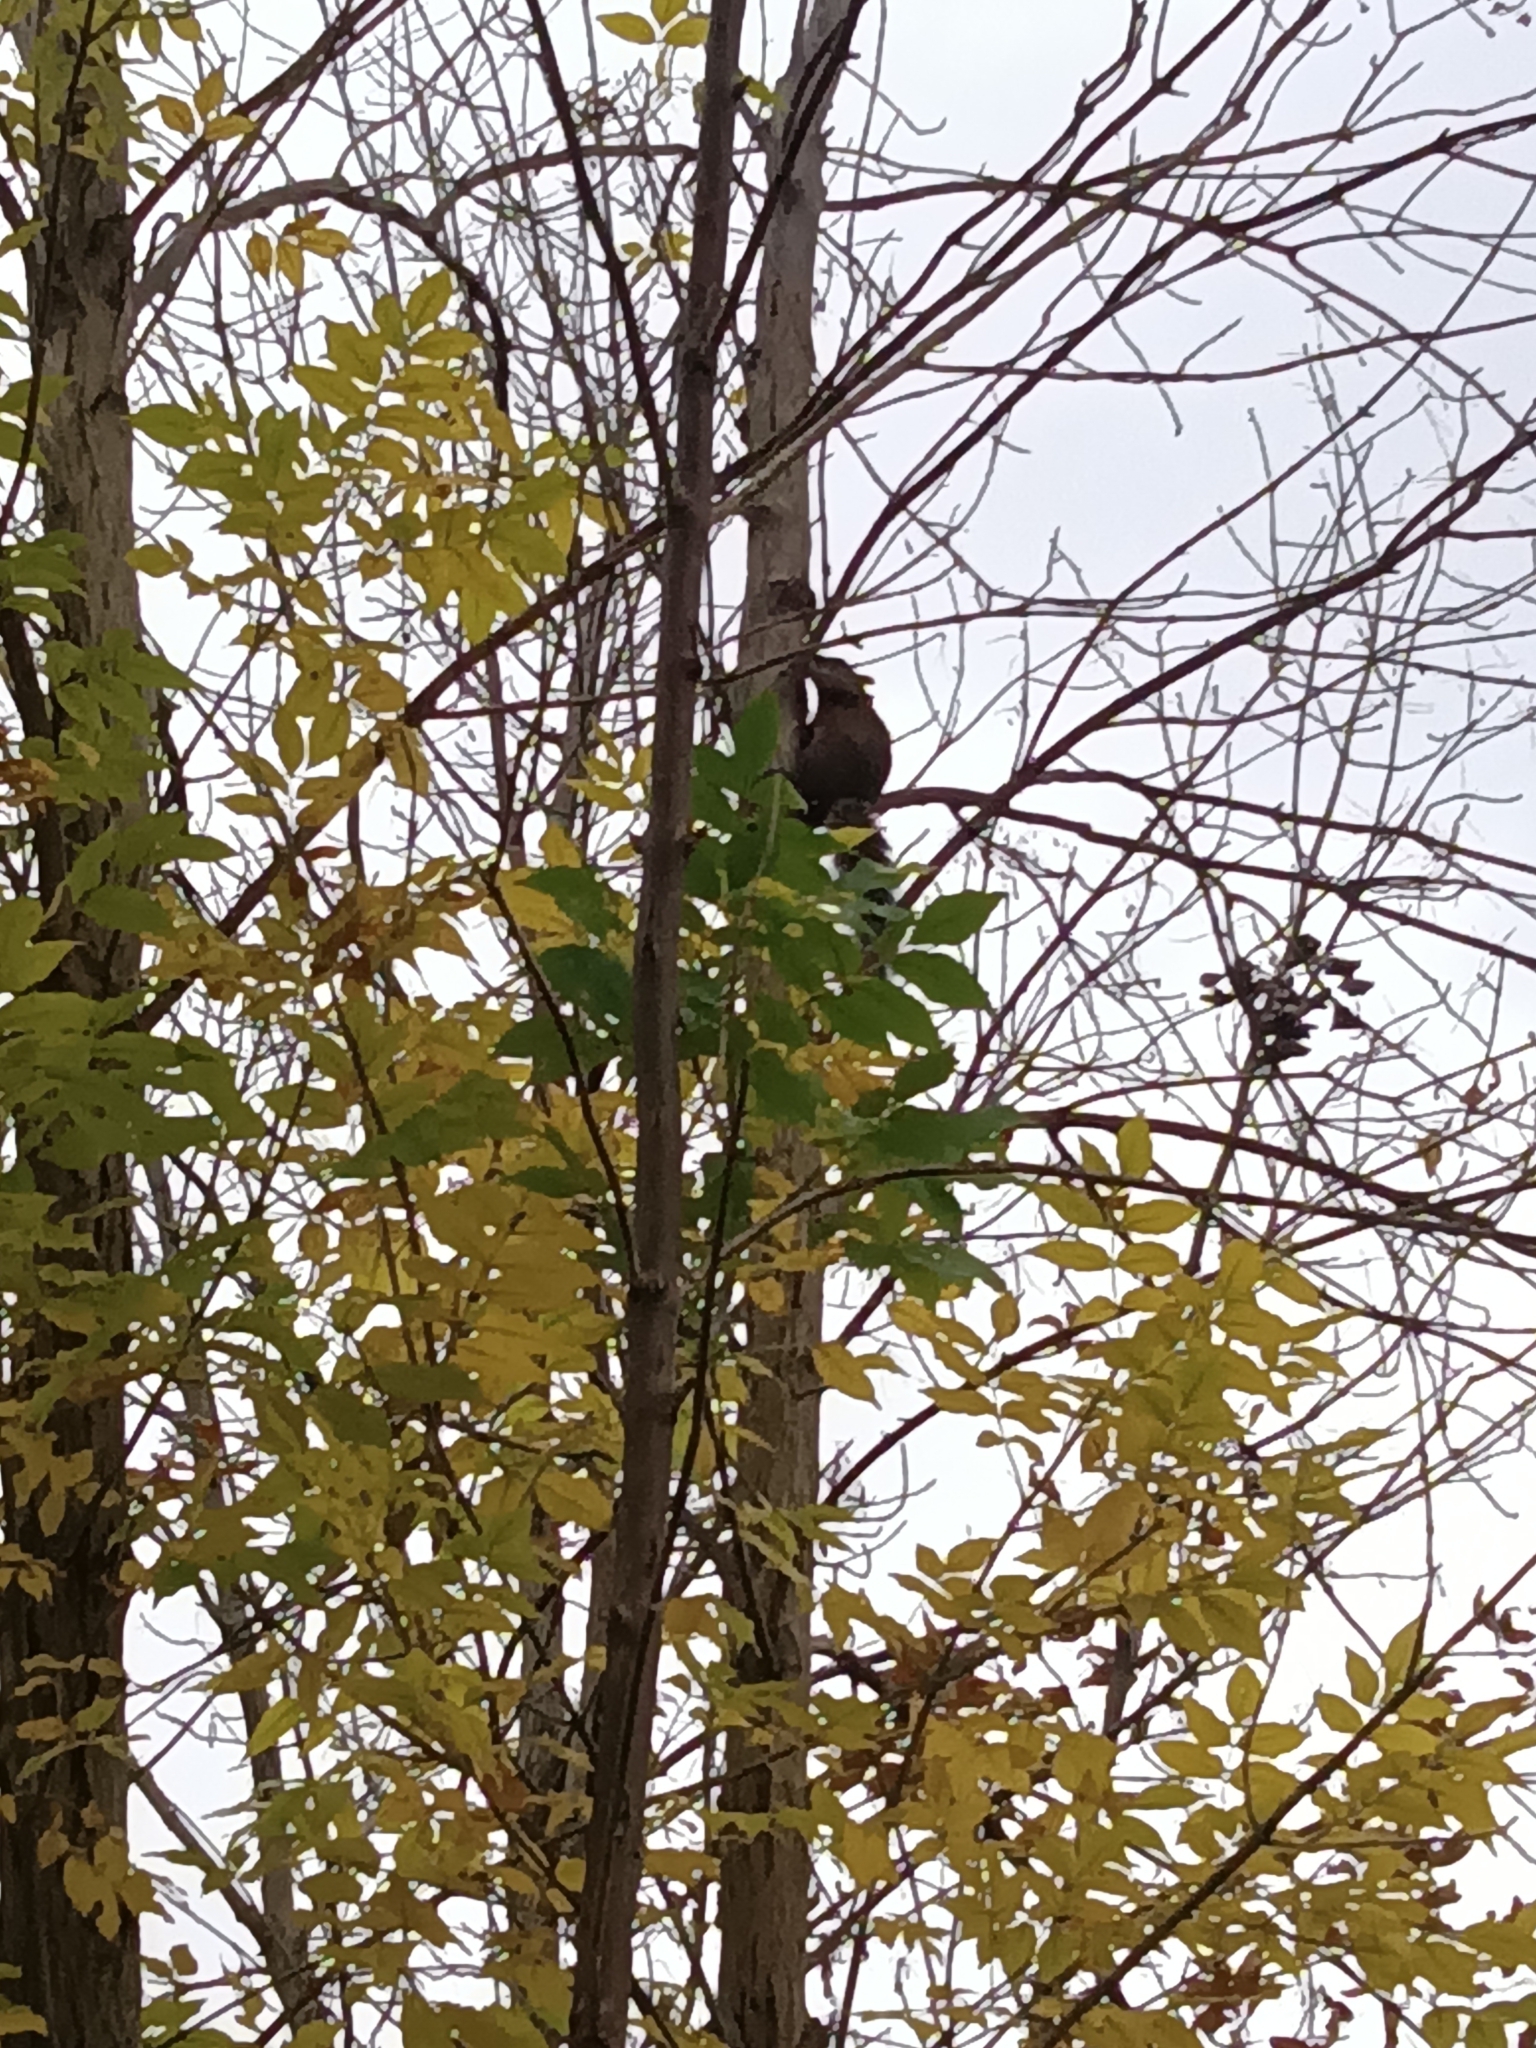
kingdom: Animalia
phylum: Chordata
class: Mammalia
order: Rodentia
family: Sciuridae
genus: Sciurus
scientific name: Sciurus carolinensis
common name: Eastern gray squirrel
